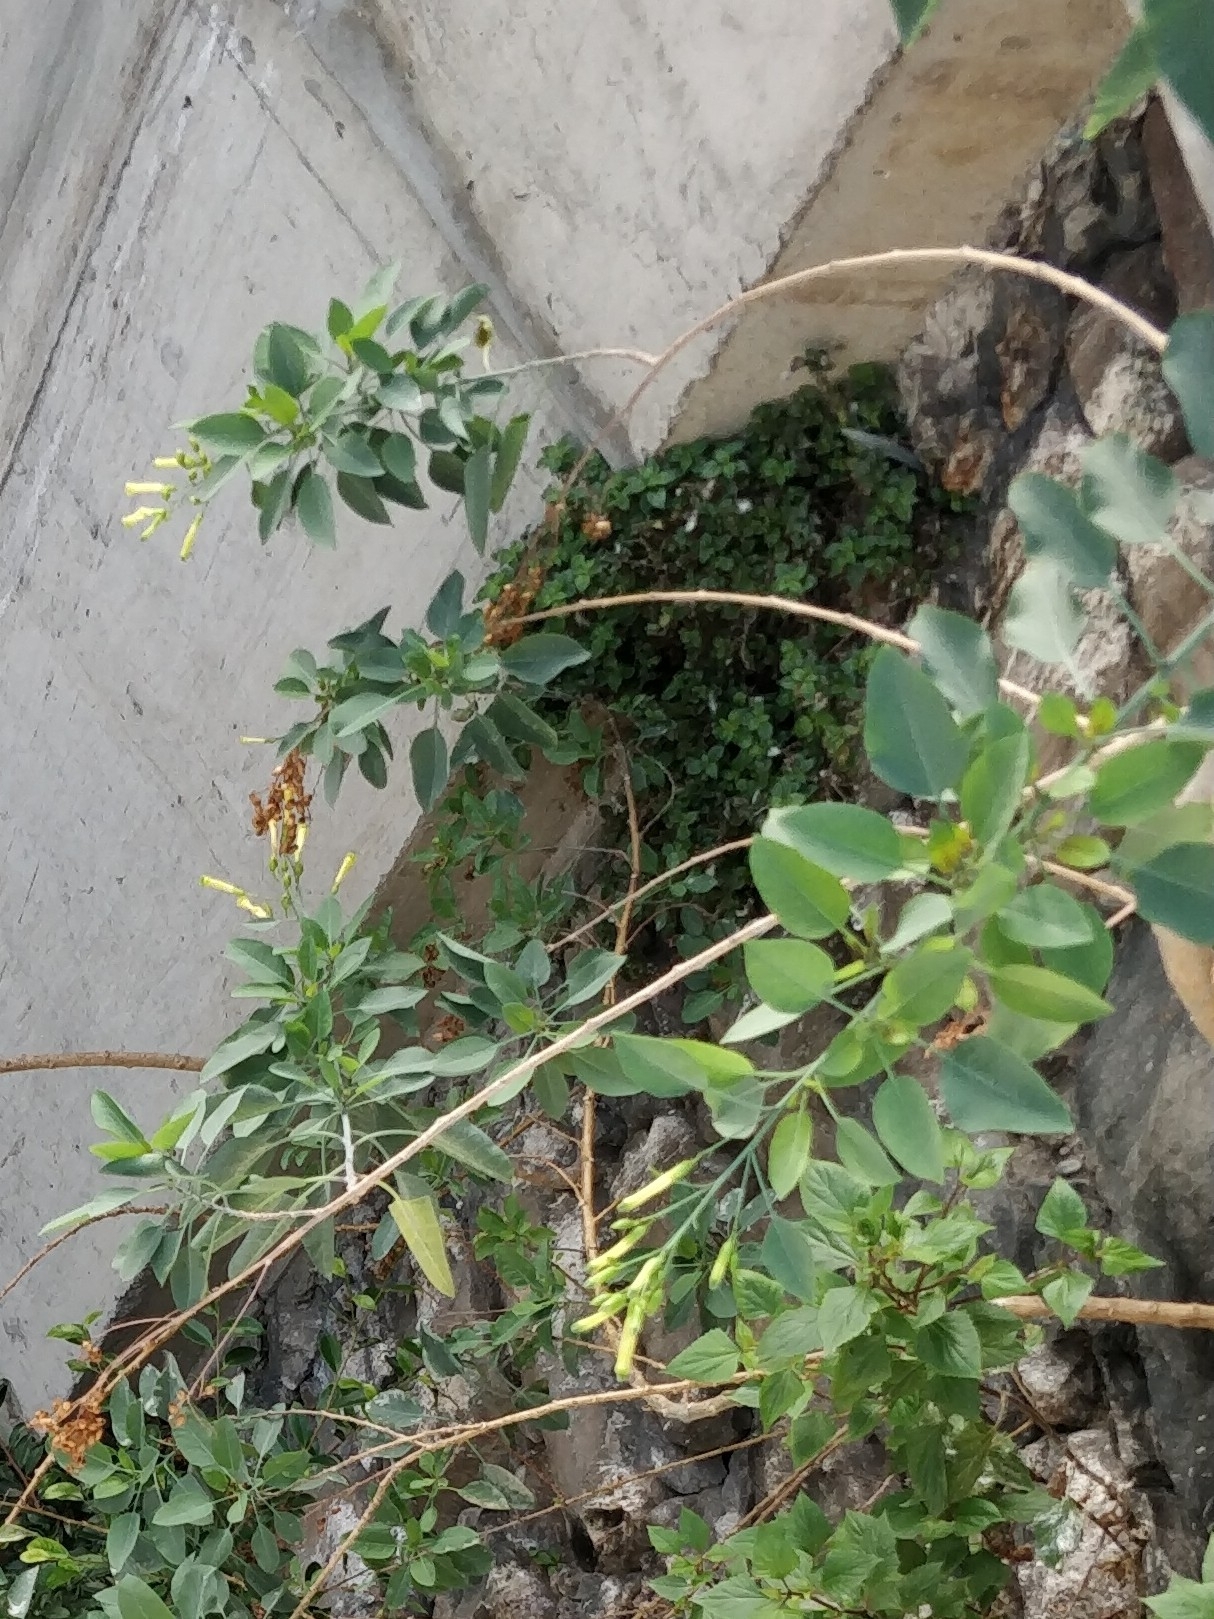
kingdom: Plantae
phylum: Tracheophyta
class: Magnoliopsida
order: Solanales
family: Solanaceae
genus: Nicotiana
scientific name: Nicotiana glauca
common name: Tree tobacco
